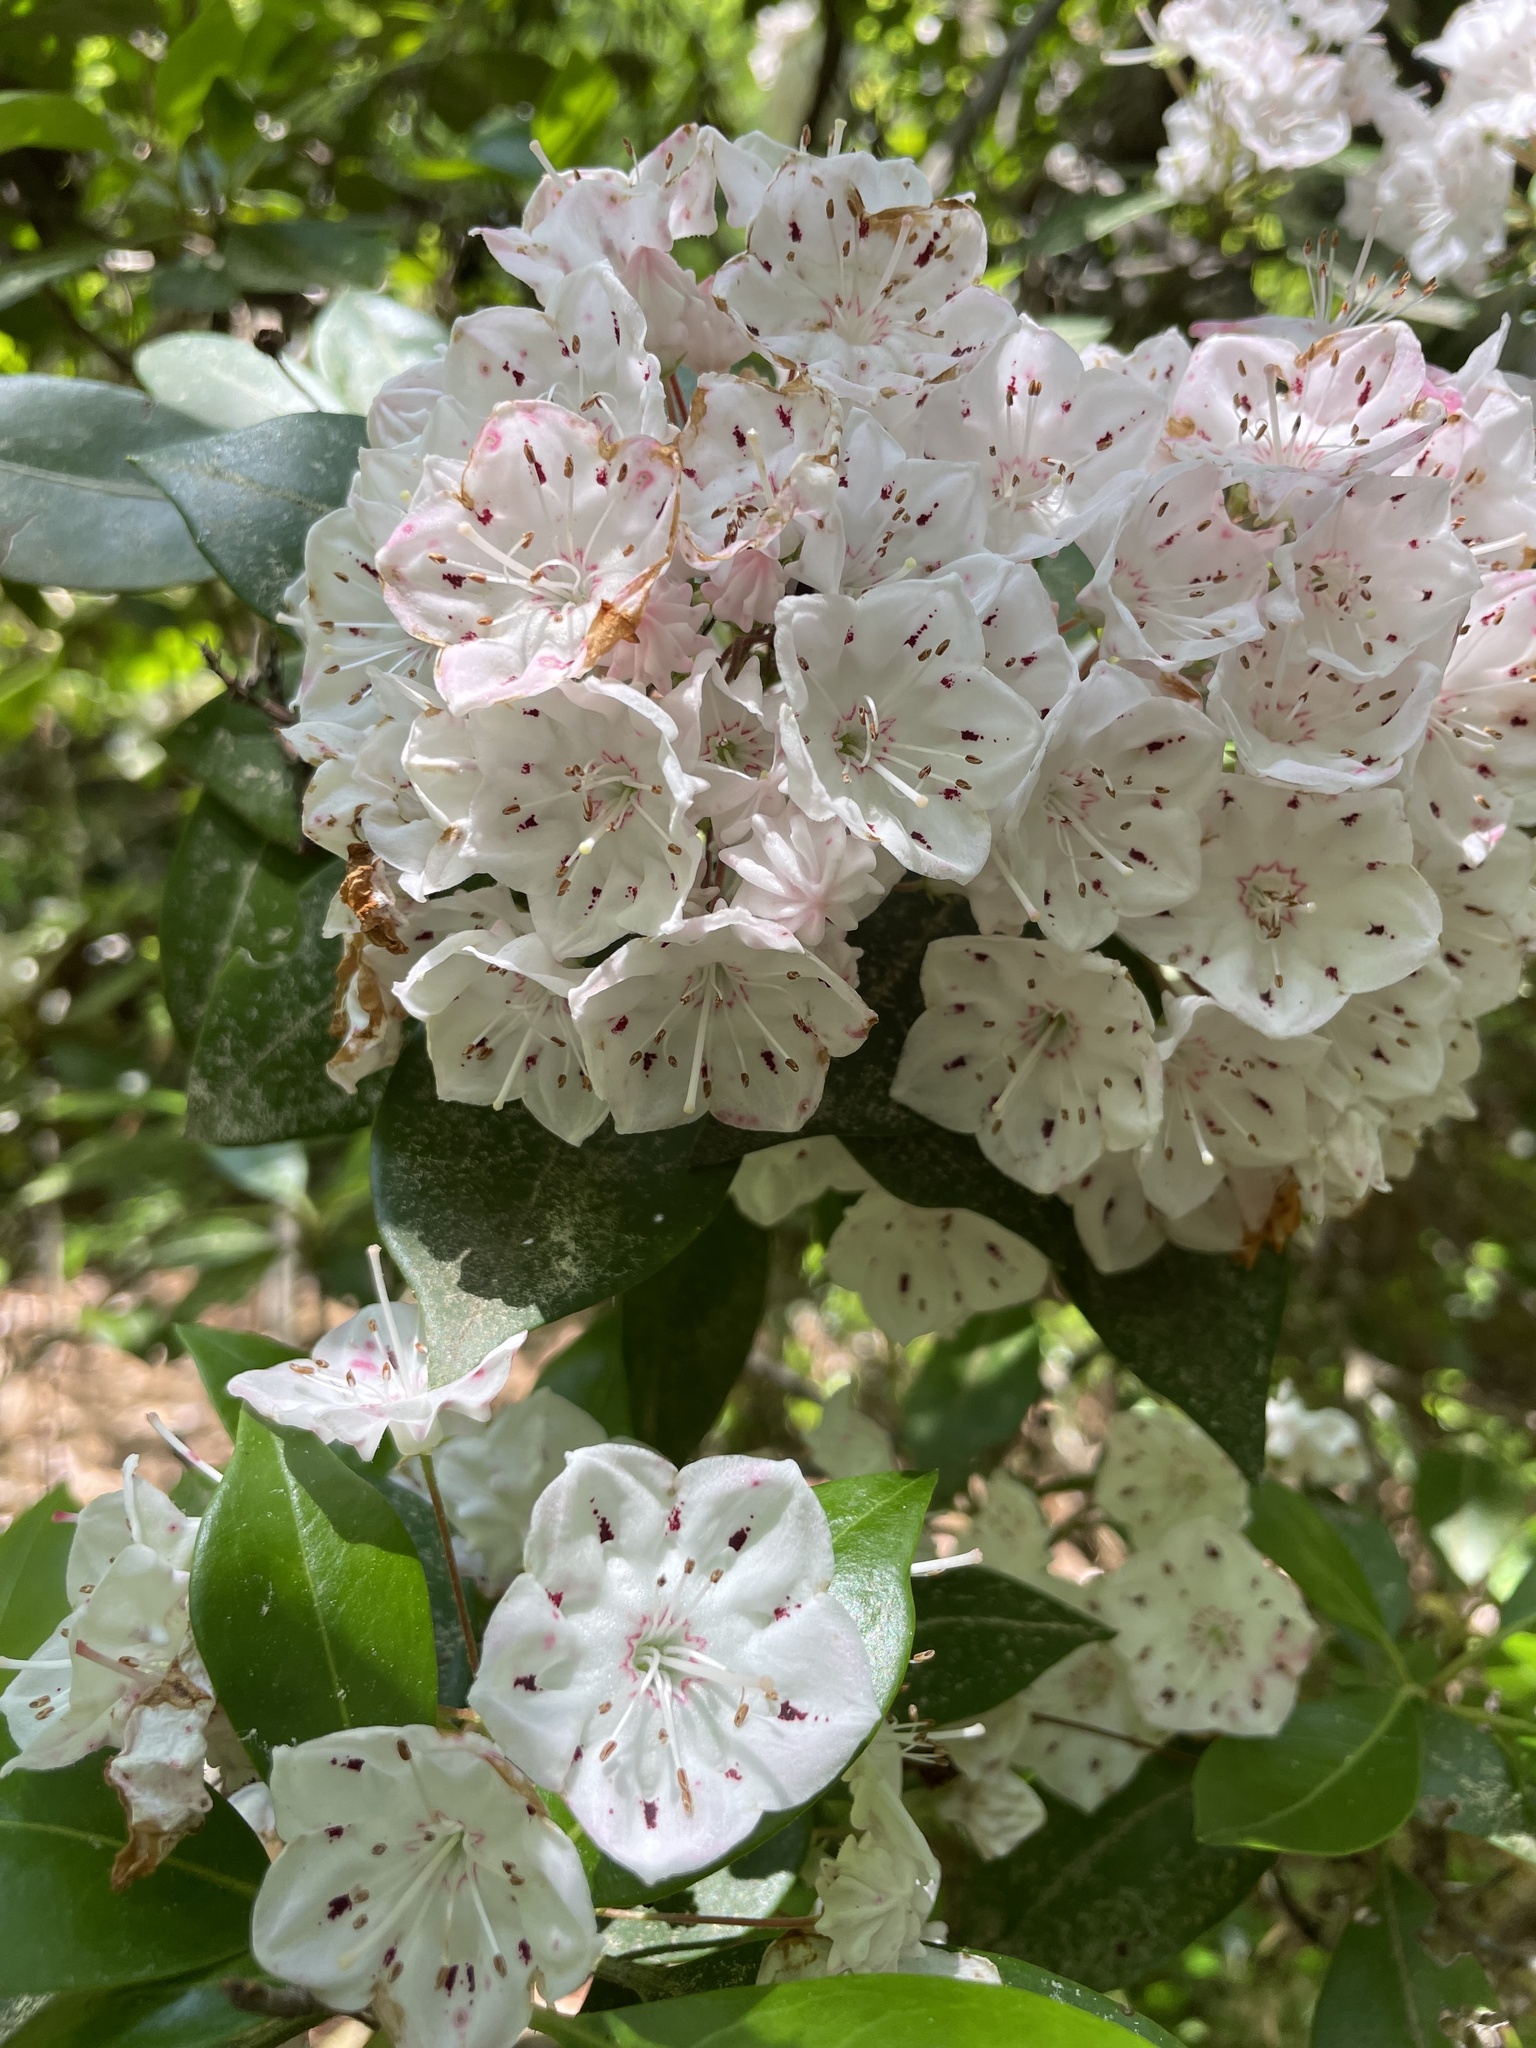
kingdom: Plantae
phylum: Tracheophyta
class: Magnoliopsida
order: Ericales
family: Ericaceae
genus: Kalmia
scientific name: Kalmia latifolia
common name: Mountain-laurel
